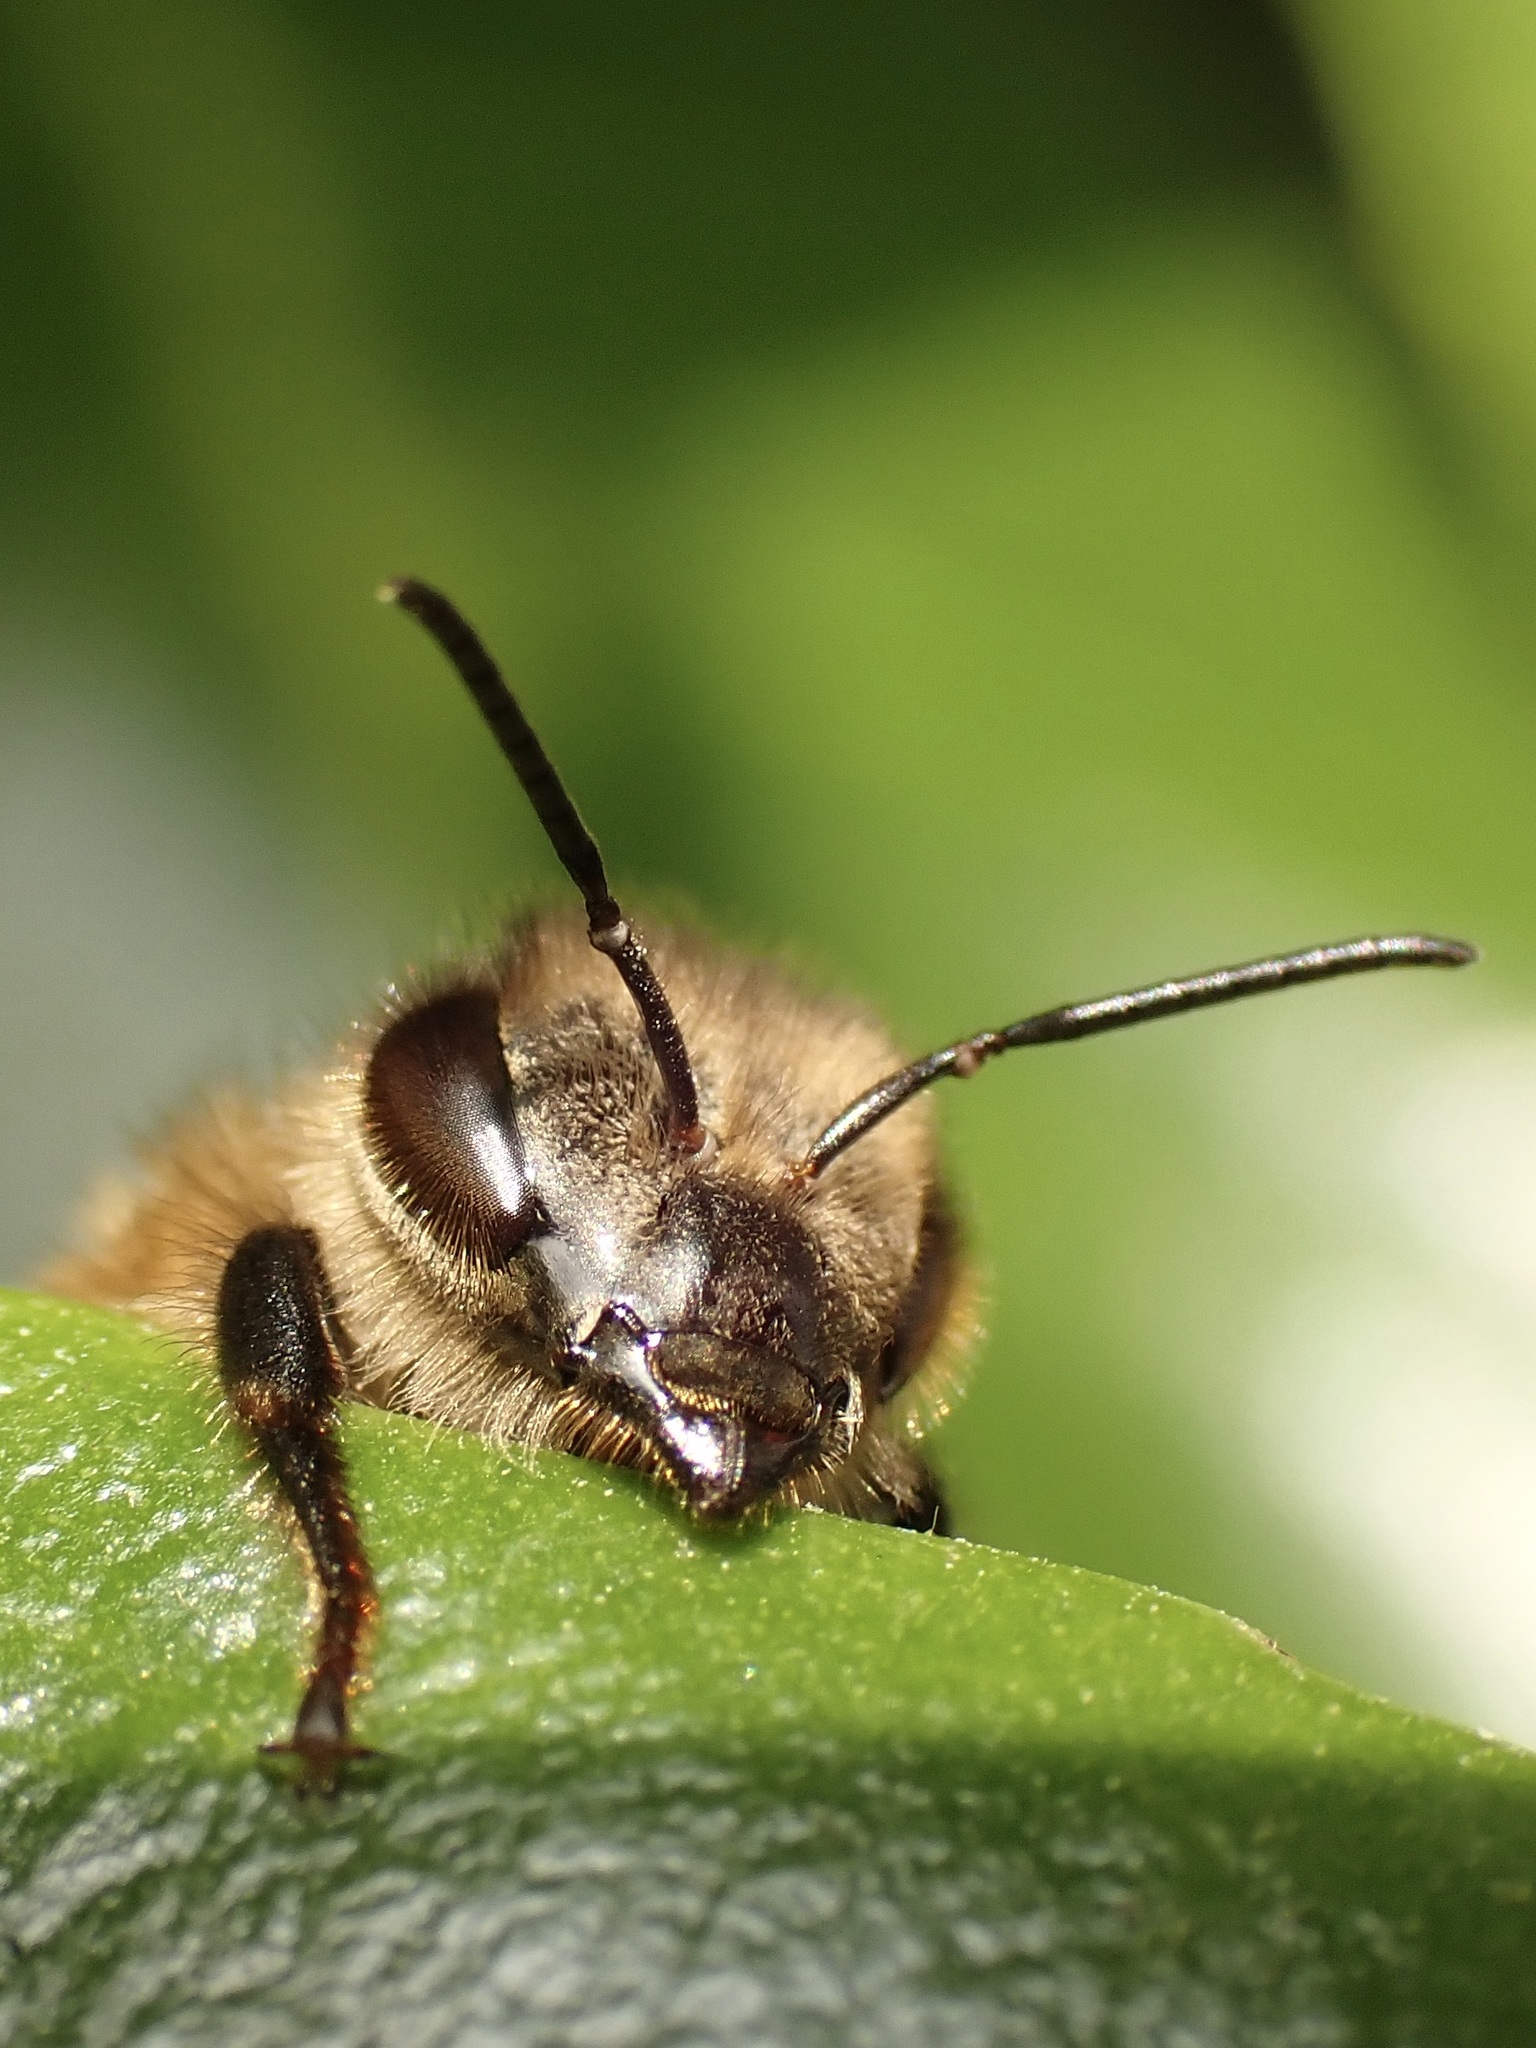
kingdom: Animalia
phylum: Arthropoda
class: Insecta
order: Hymenoptera
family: Apidae
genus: Apis
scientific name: Apis mellifera
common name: Honey bee
